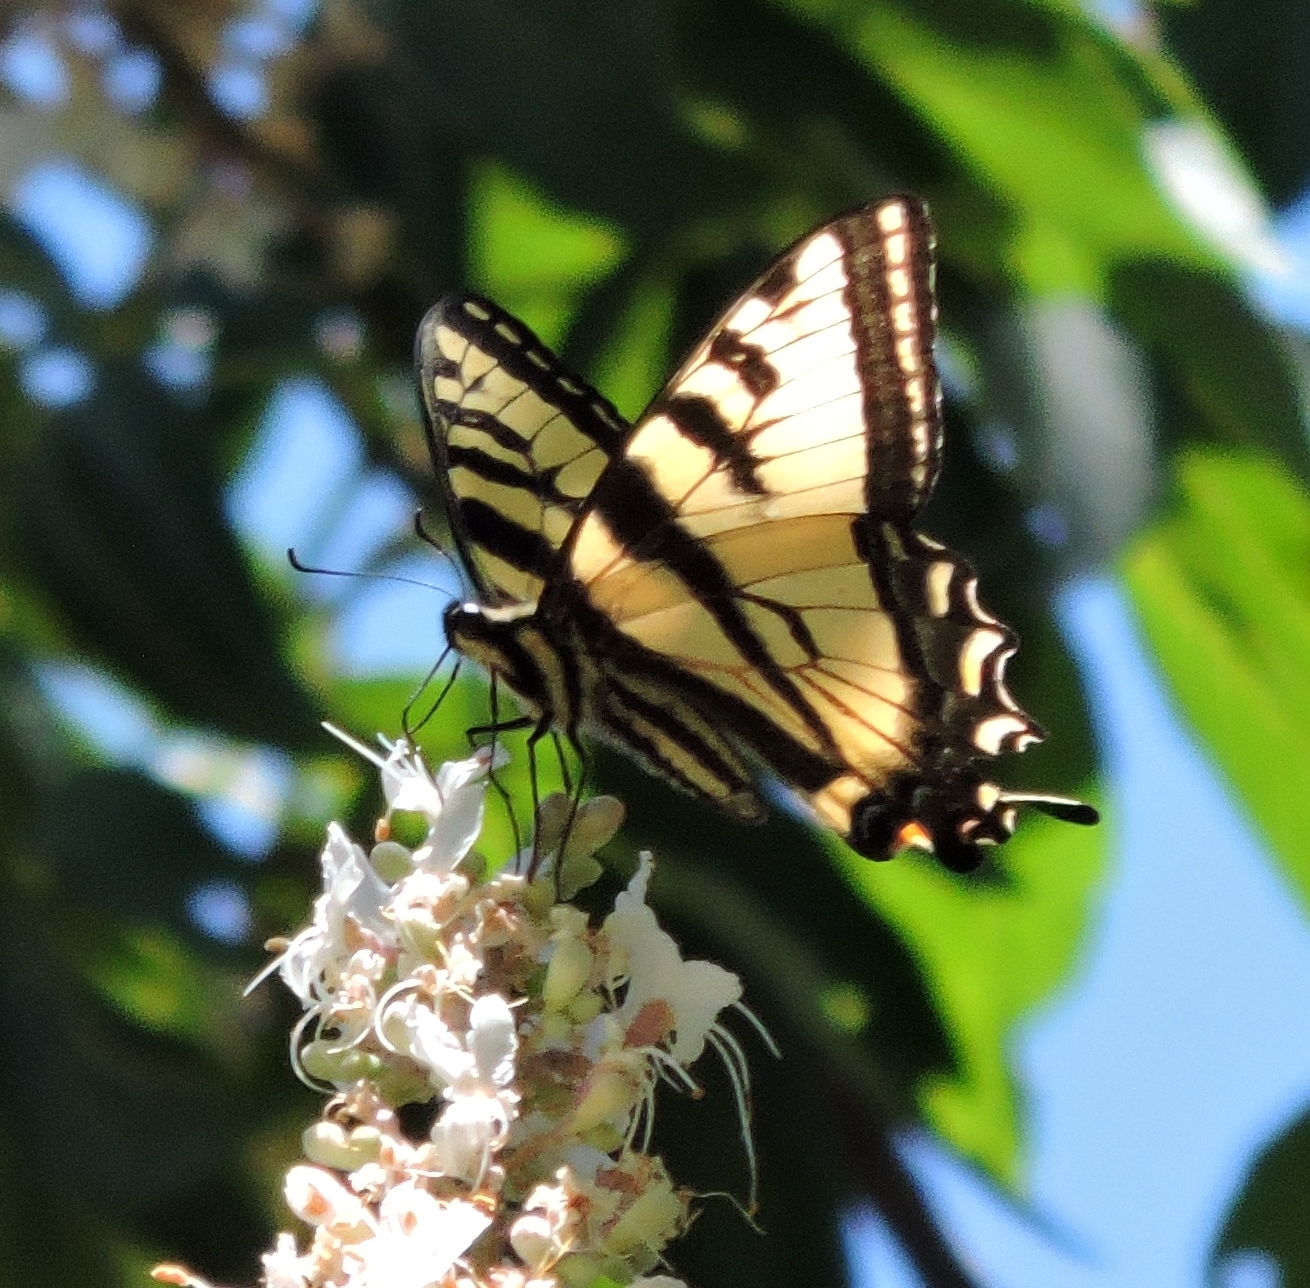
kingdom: Animalia
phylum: Arthropoda
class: Insecta
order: Lepidoptera
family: Papilionidae
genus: Papilio
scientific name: Papilio rutulus
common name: Western tiger swallowtail
